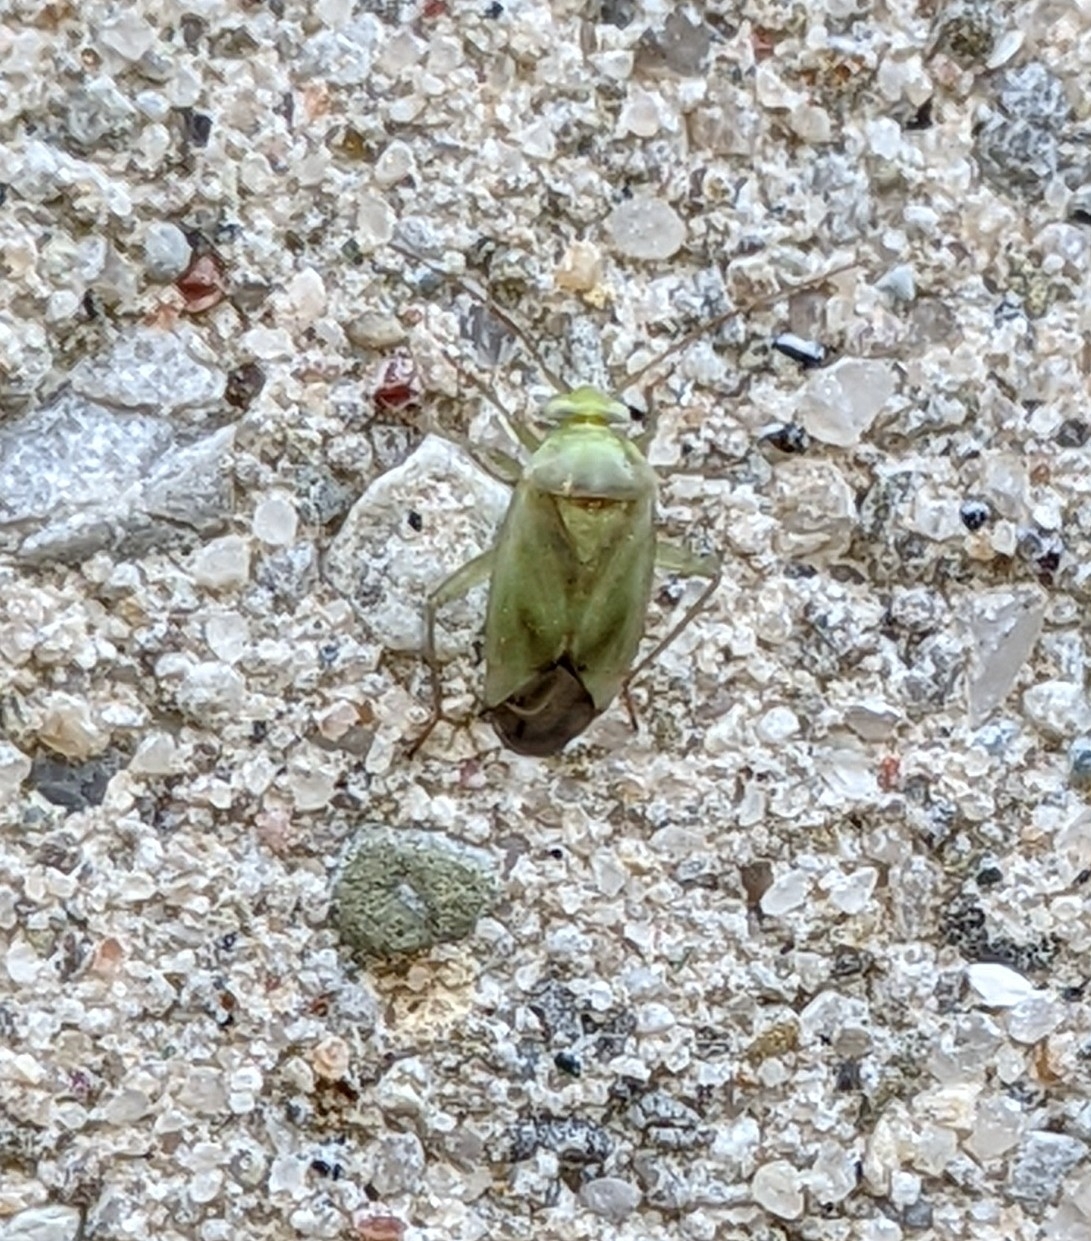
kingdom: Animalia
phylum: Arthropoda
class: Insecta
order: Hemiptera
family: Miridae
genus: Taylorilygus
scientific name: Taylorilygus apicalis
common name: Plant bug
